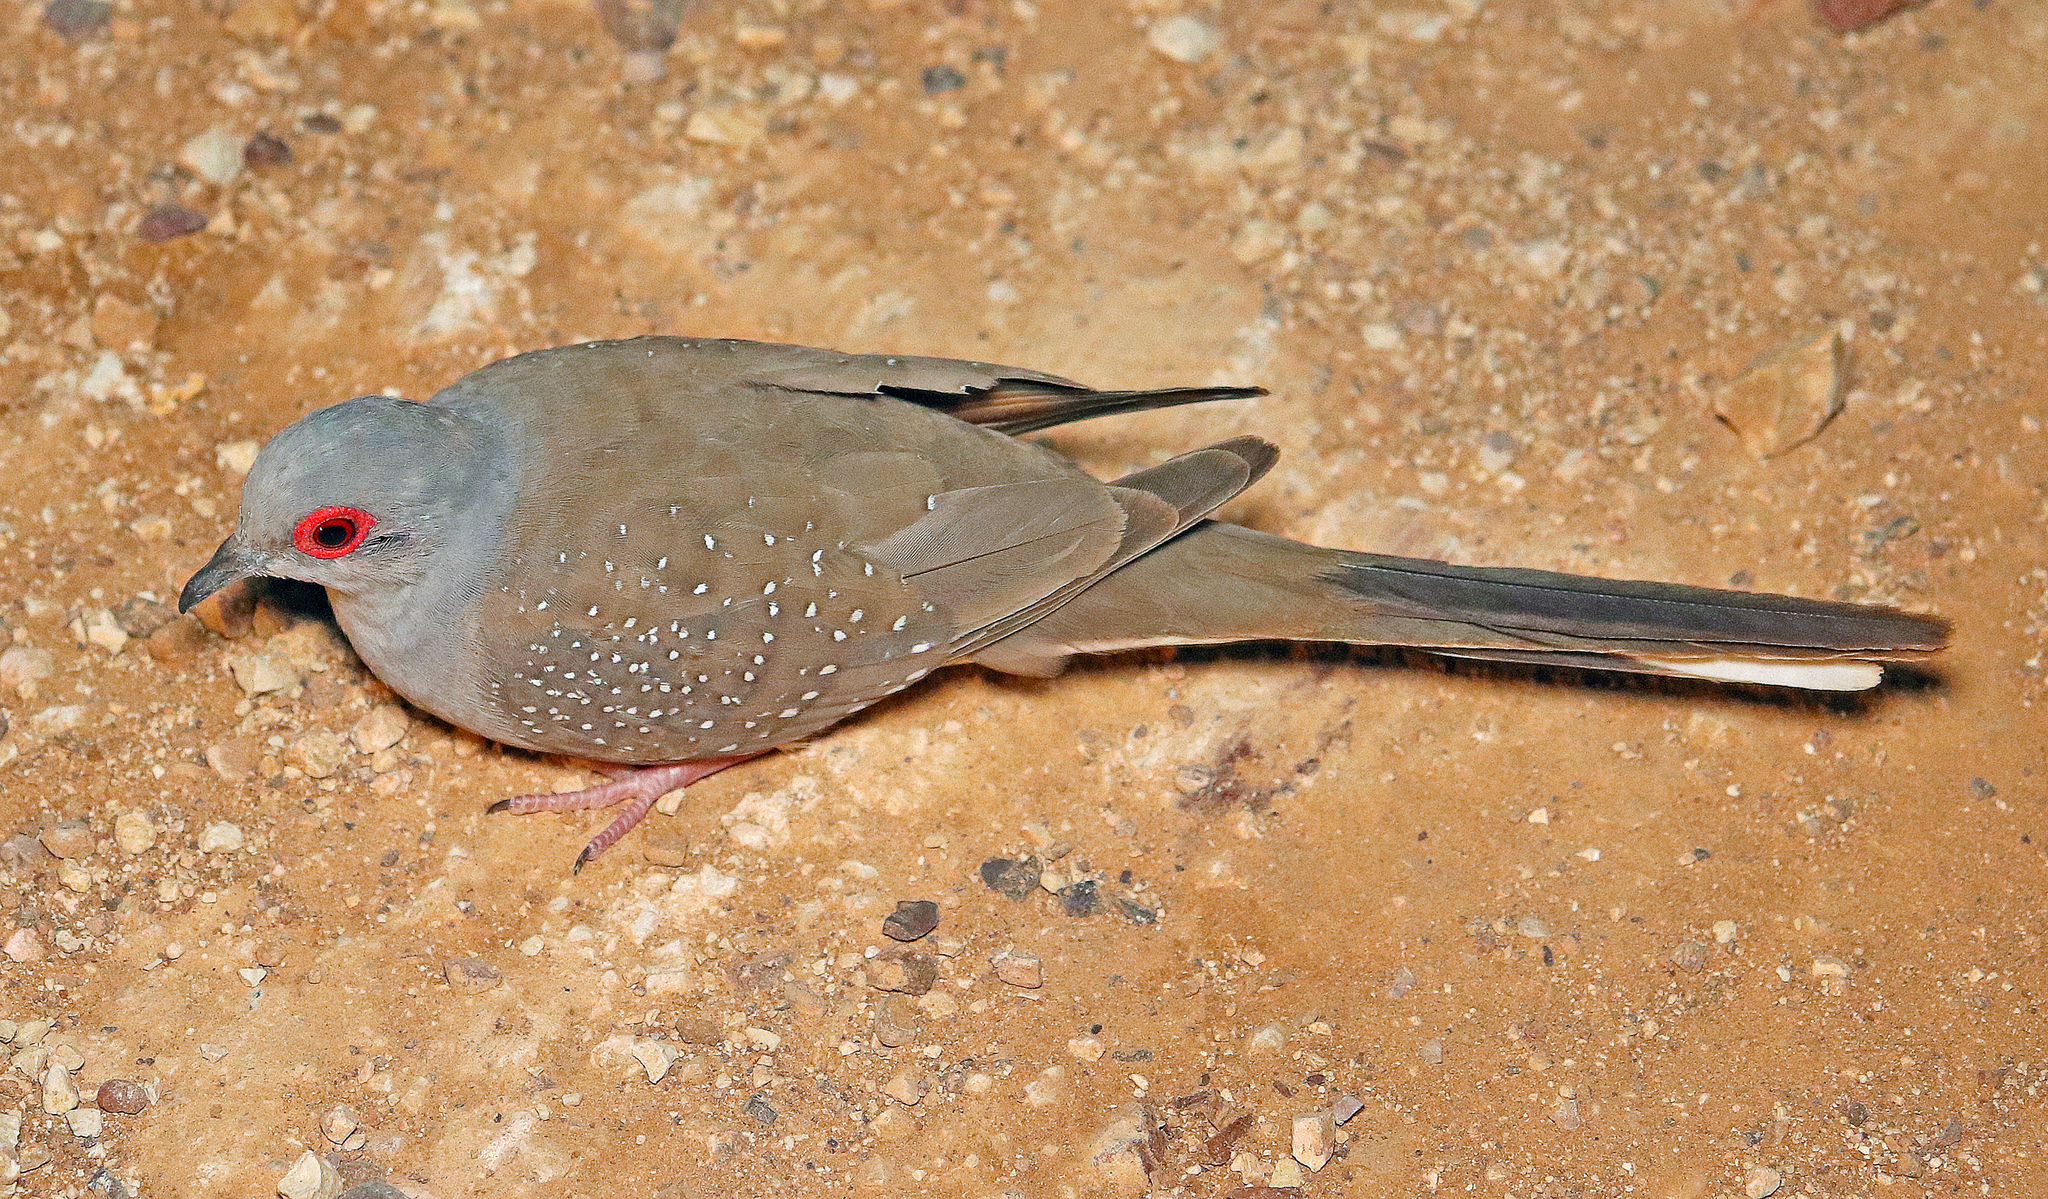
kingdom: Animalia
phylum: Chordata
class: Aves
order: Columbiformes
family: Columbidae
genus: Geopelia
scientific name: Geopelia cuneata
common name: Diamond dove
